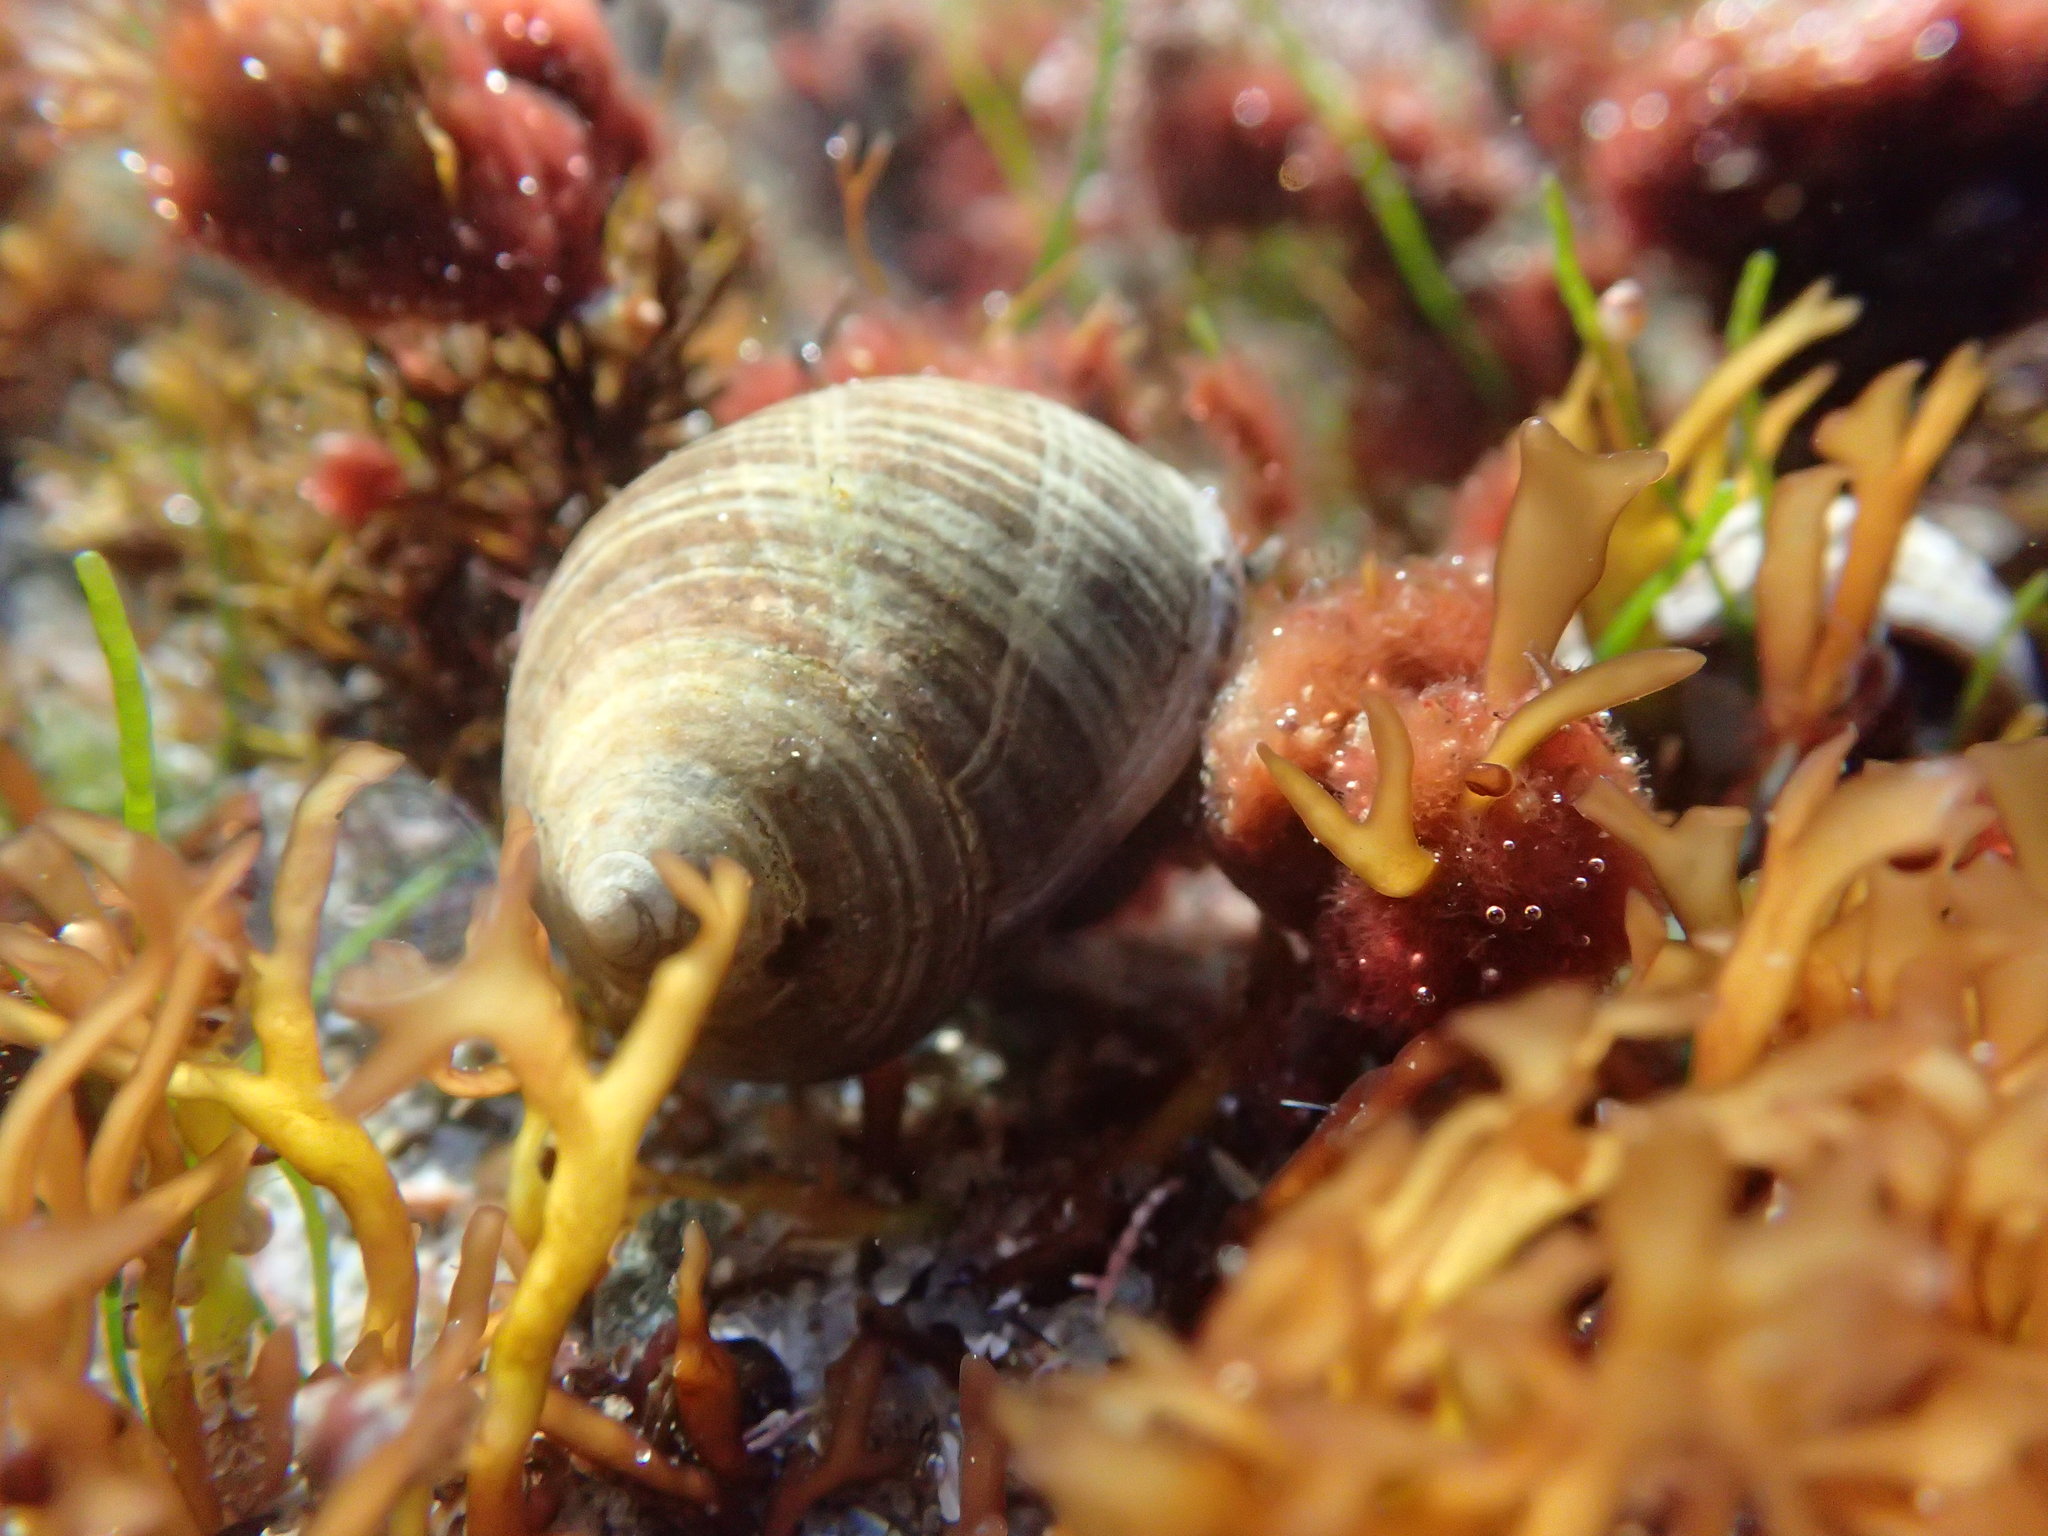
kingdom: Animalia
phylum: Mollusca
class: Gastropoda
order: Littorinimorpha
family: Littorinidae
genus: Littorina
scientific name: Littorina littorea
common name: Common periwinkle
